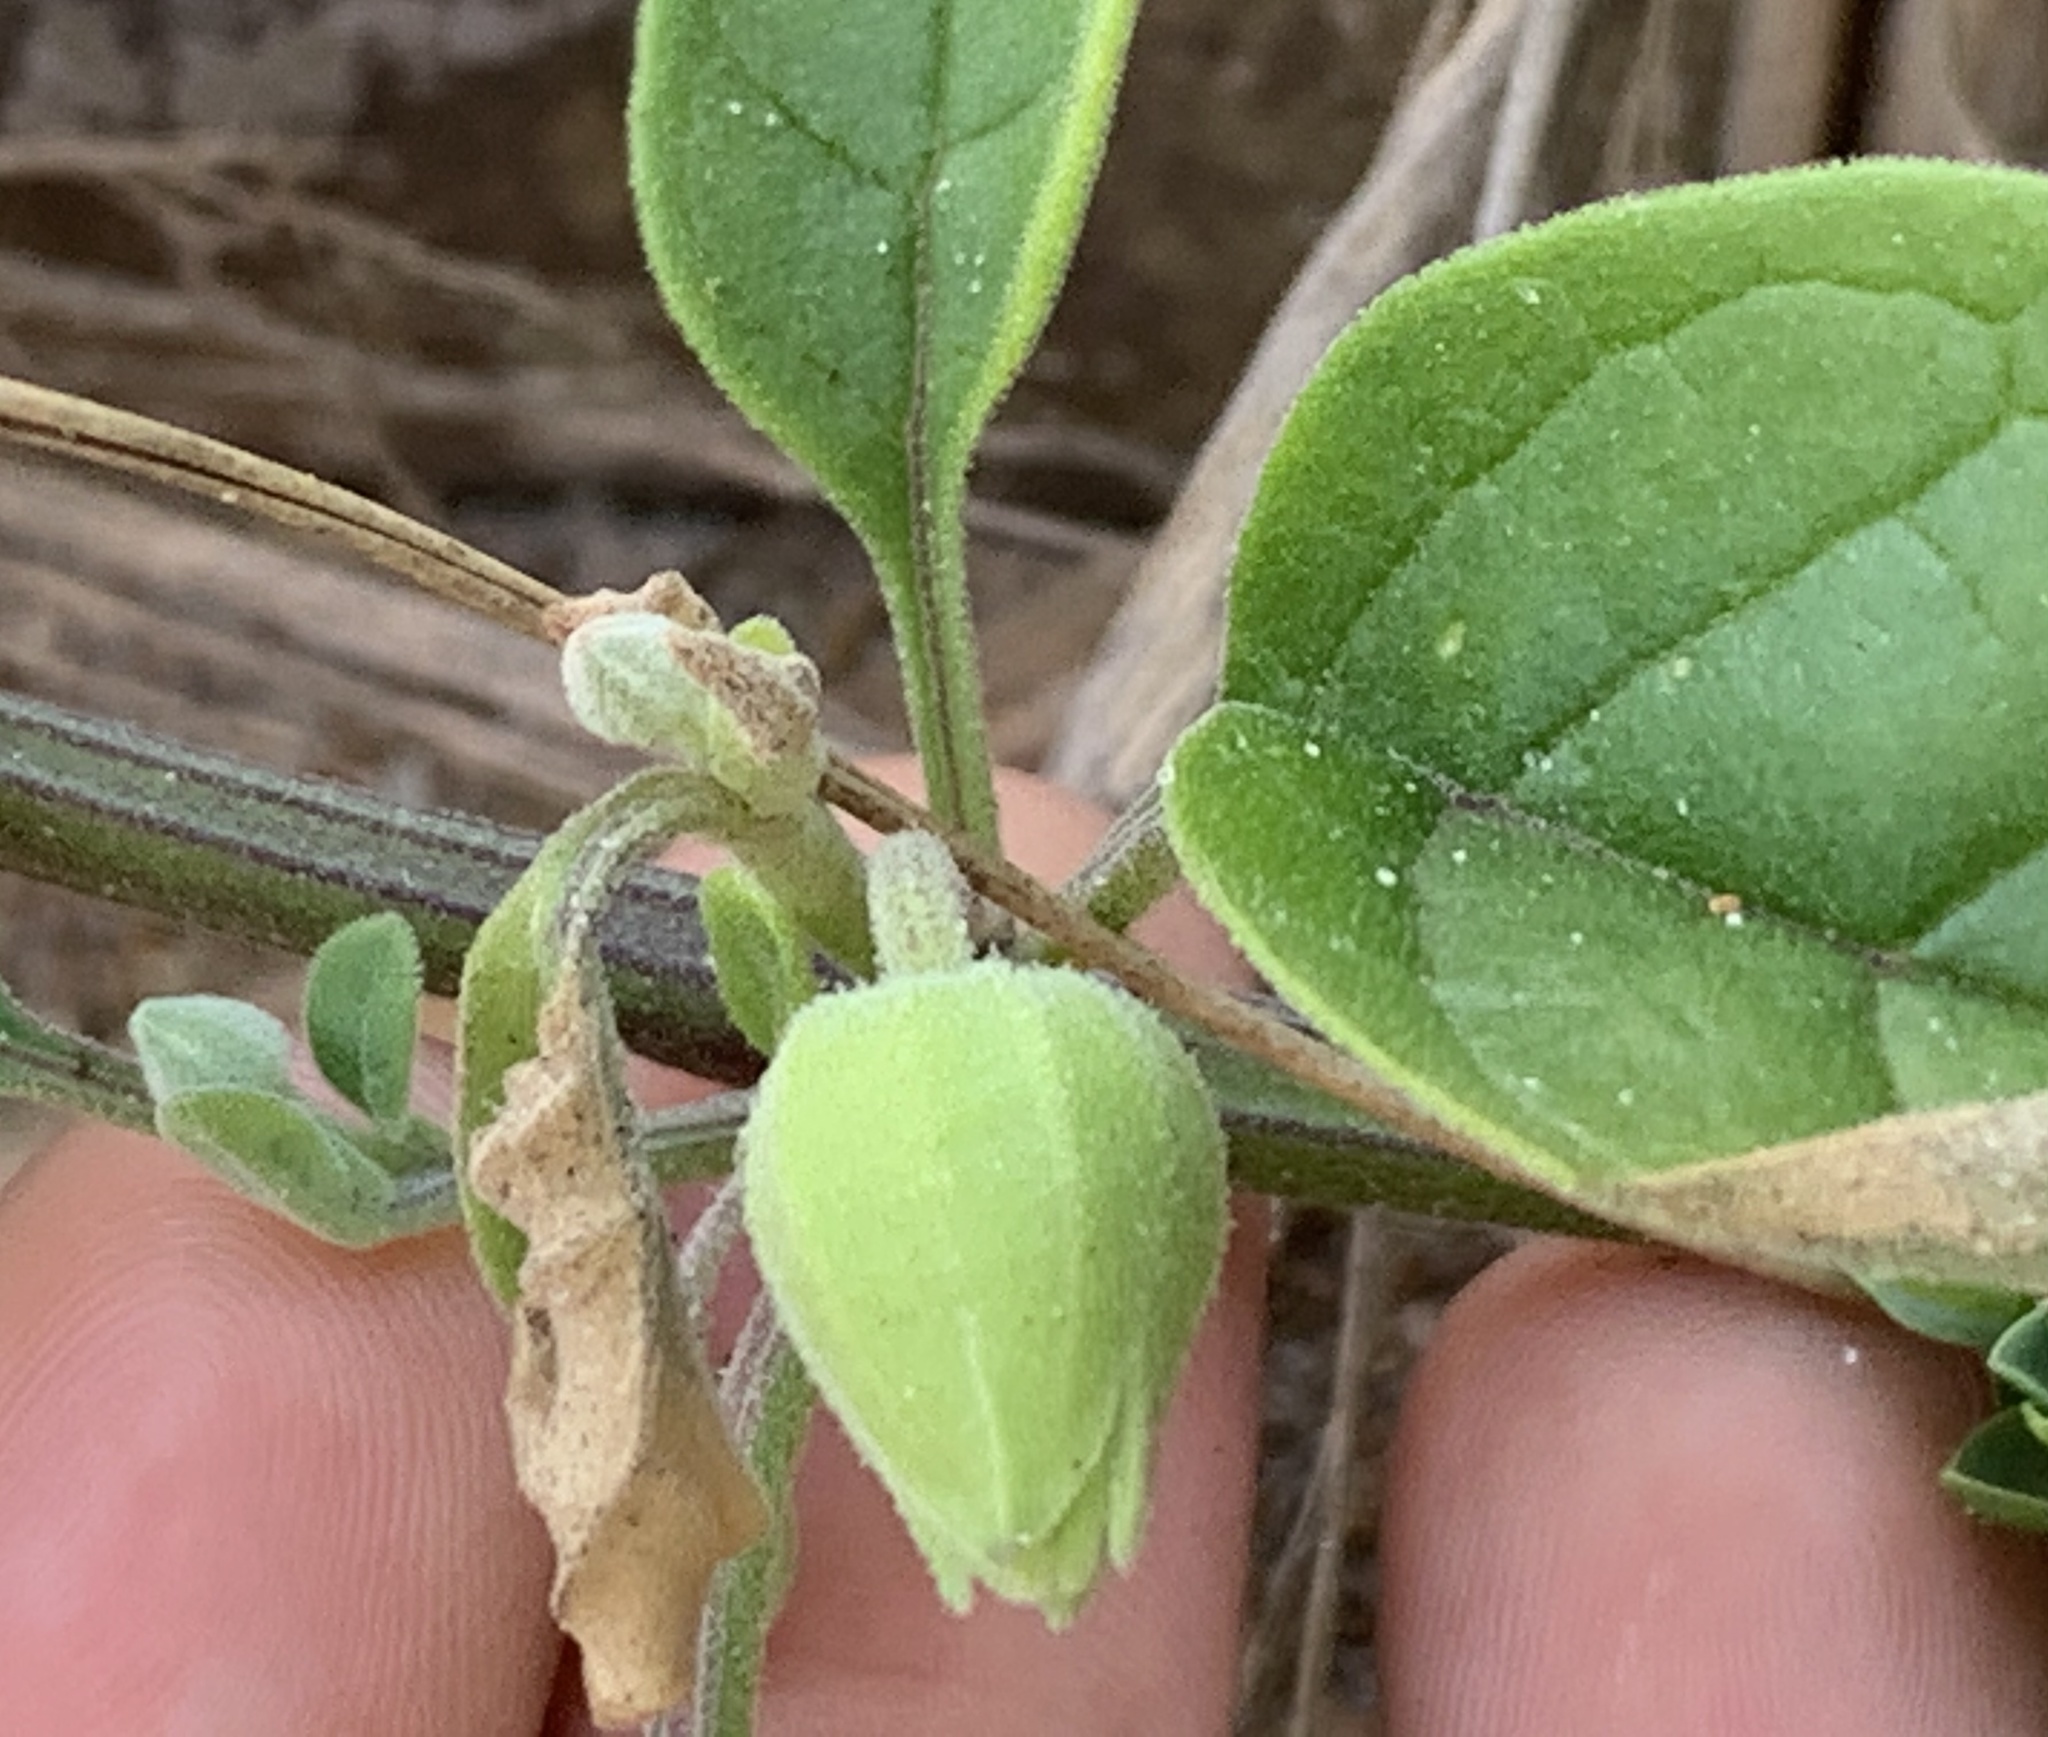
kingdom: Plantae
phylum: Tracheophyta
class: Magnoliopsida
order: Solanales
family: Solanaceae
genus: Physalis
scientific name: Physalis walteri
